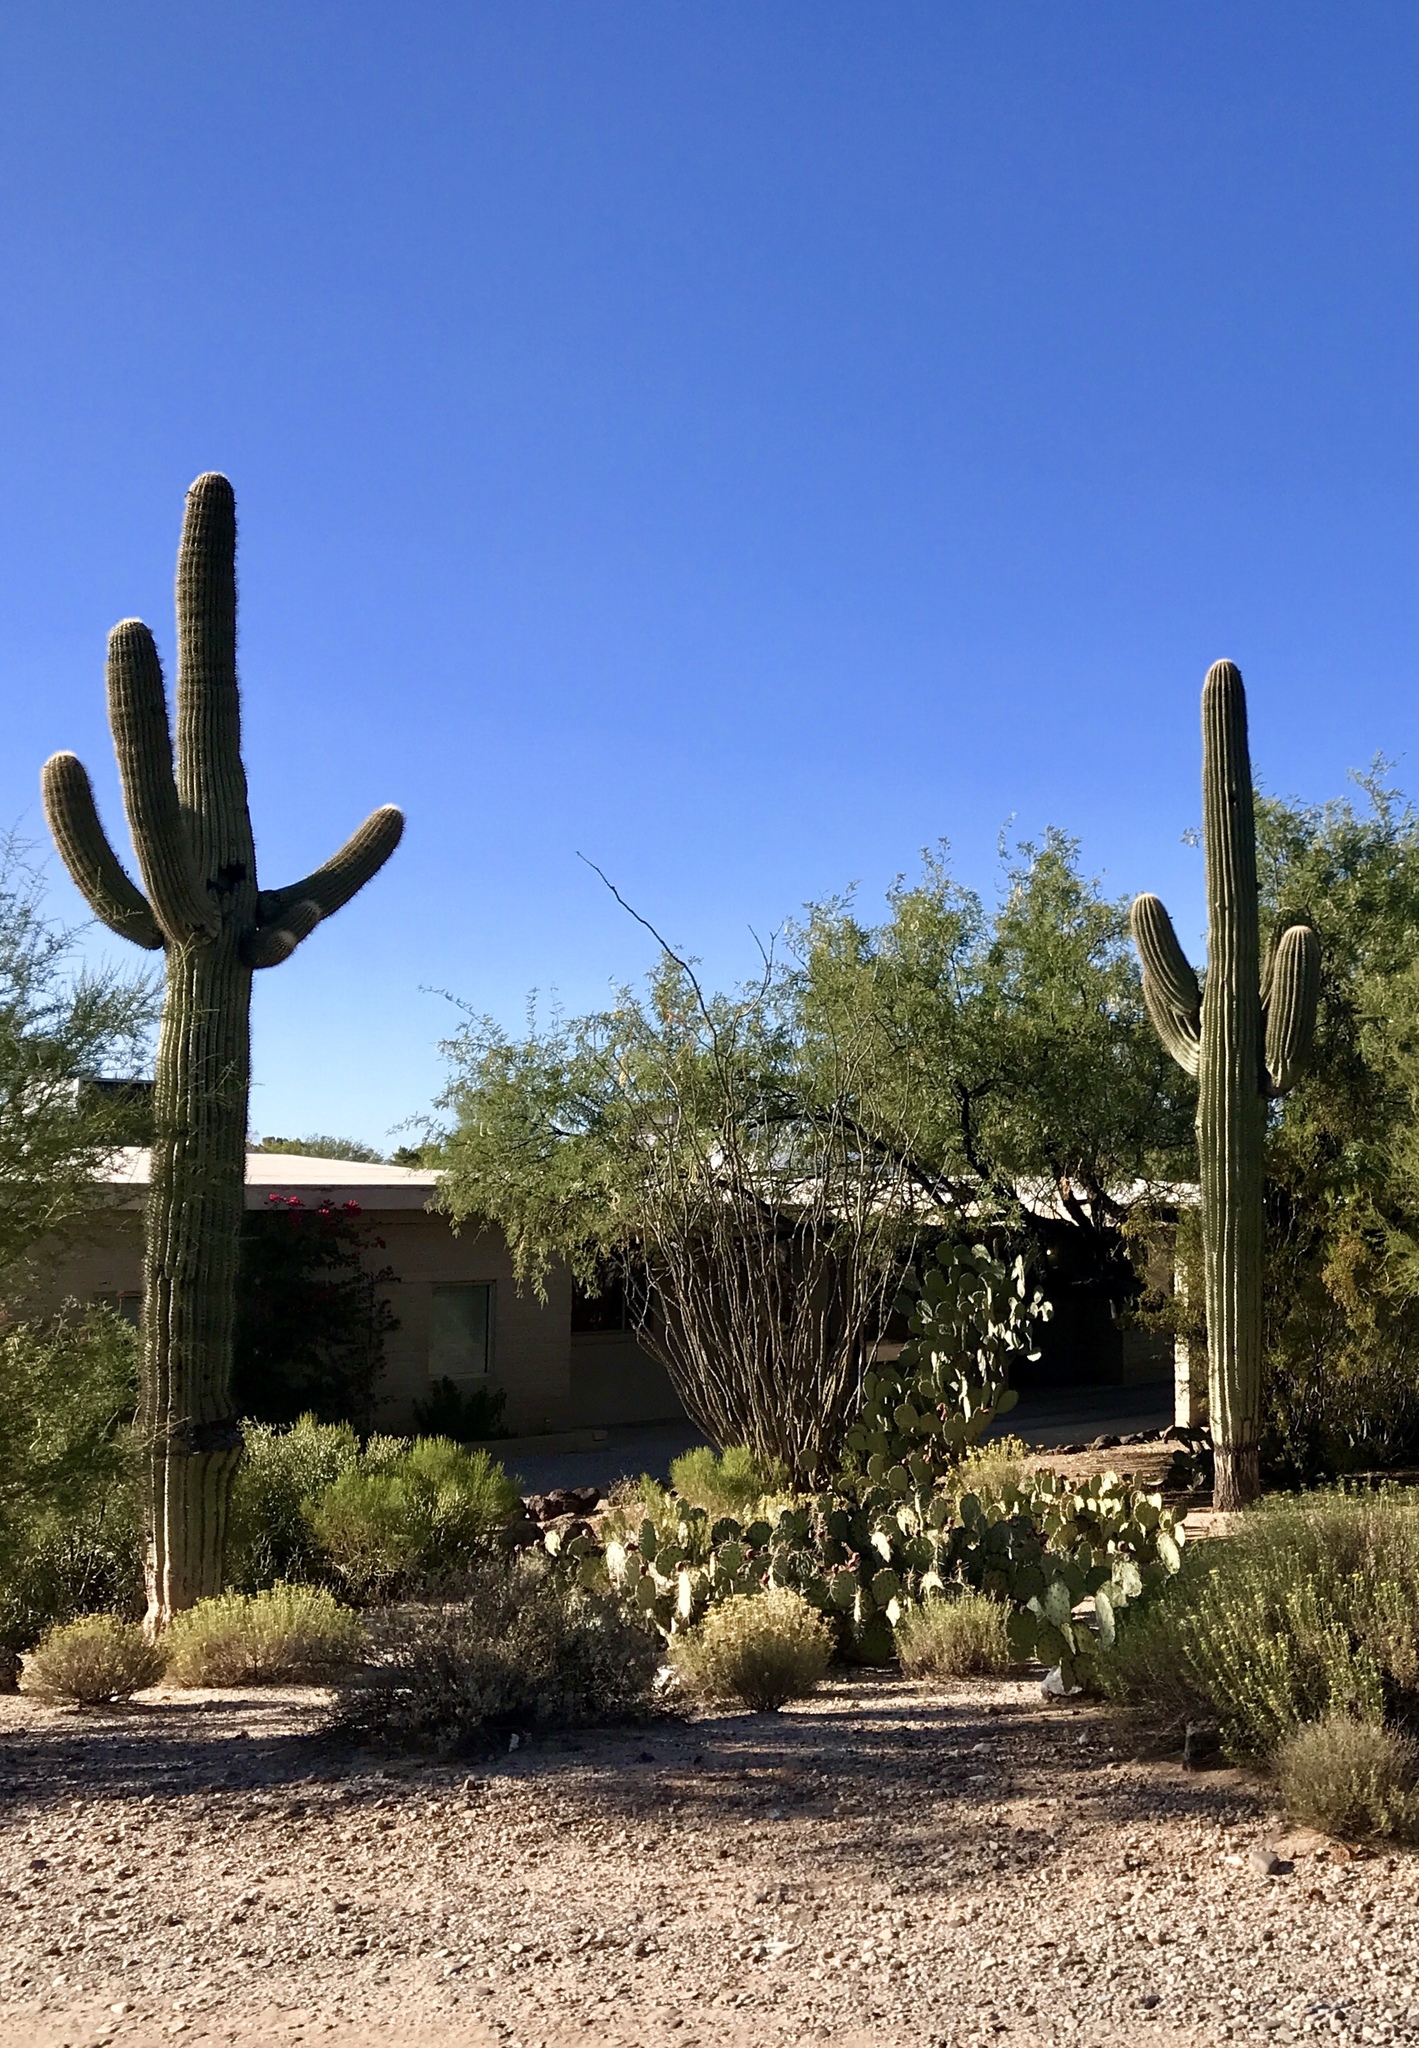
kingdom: Plantae
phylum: Tracheophyta
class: Magnoliopsida
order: Caryophyllales
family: Cactaceae
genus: Carnegiea
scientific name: Carnegiea gigantea
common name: Saguaro
